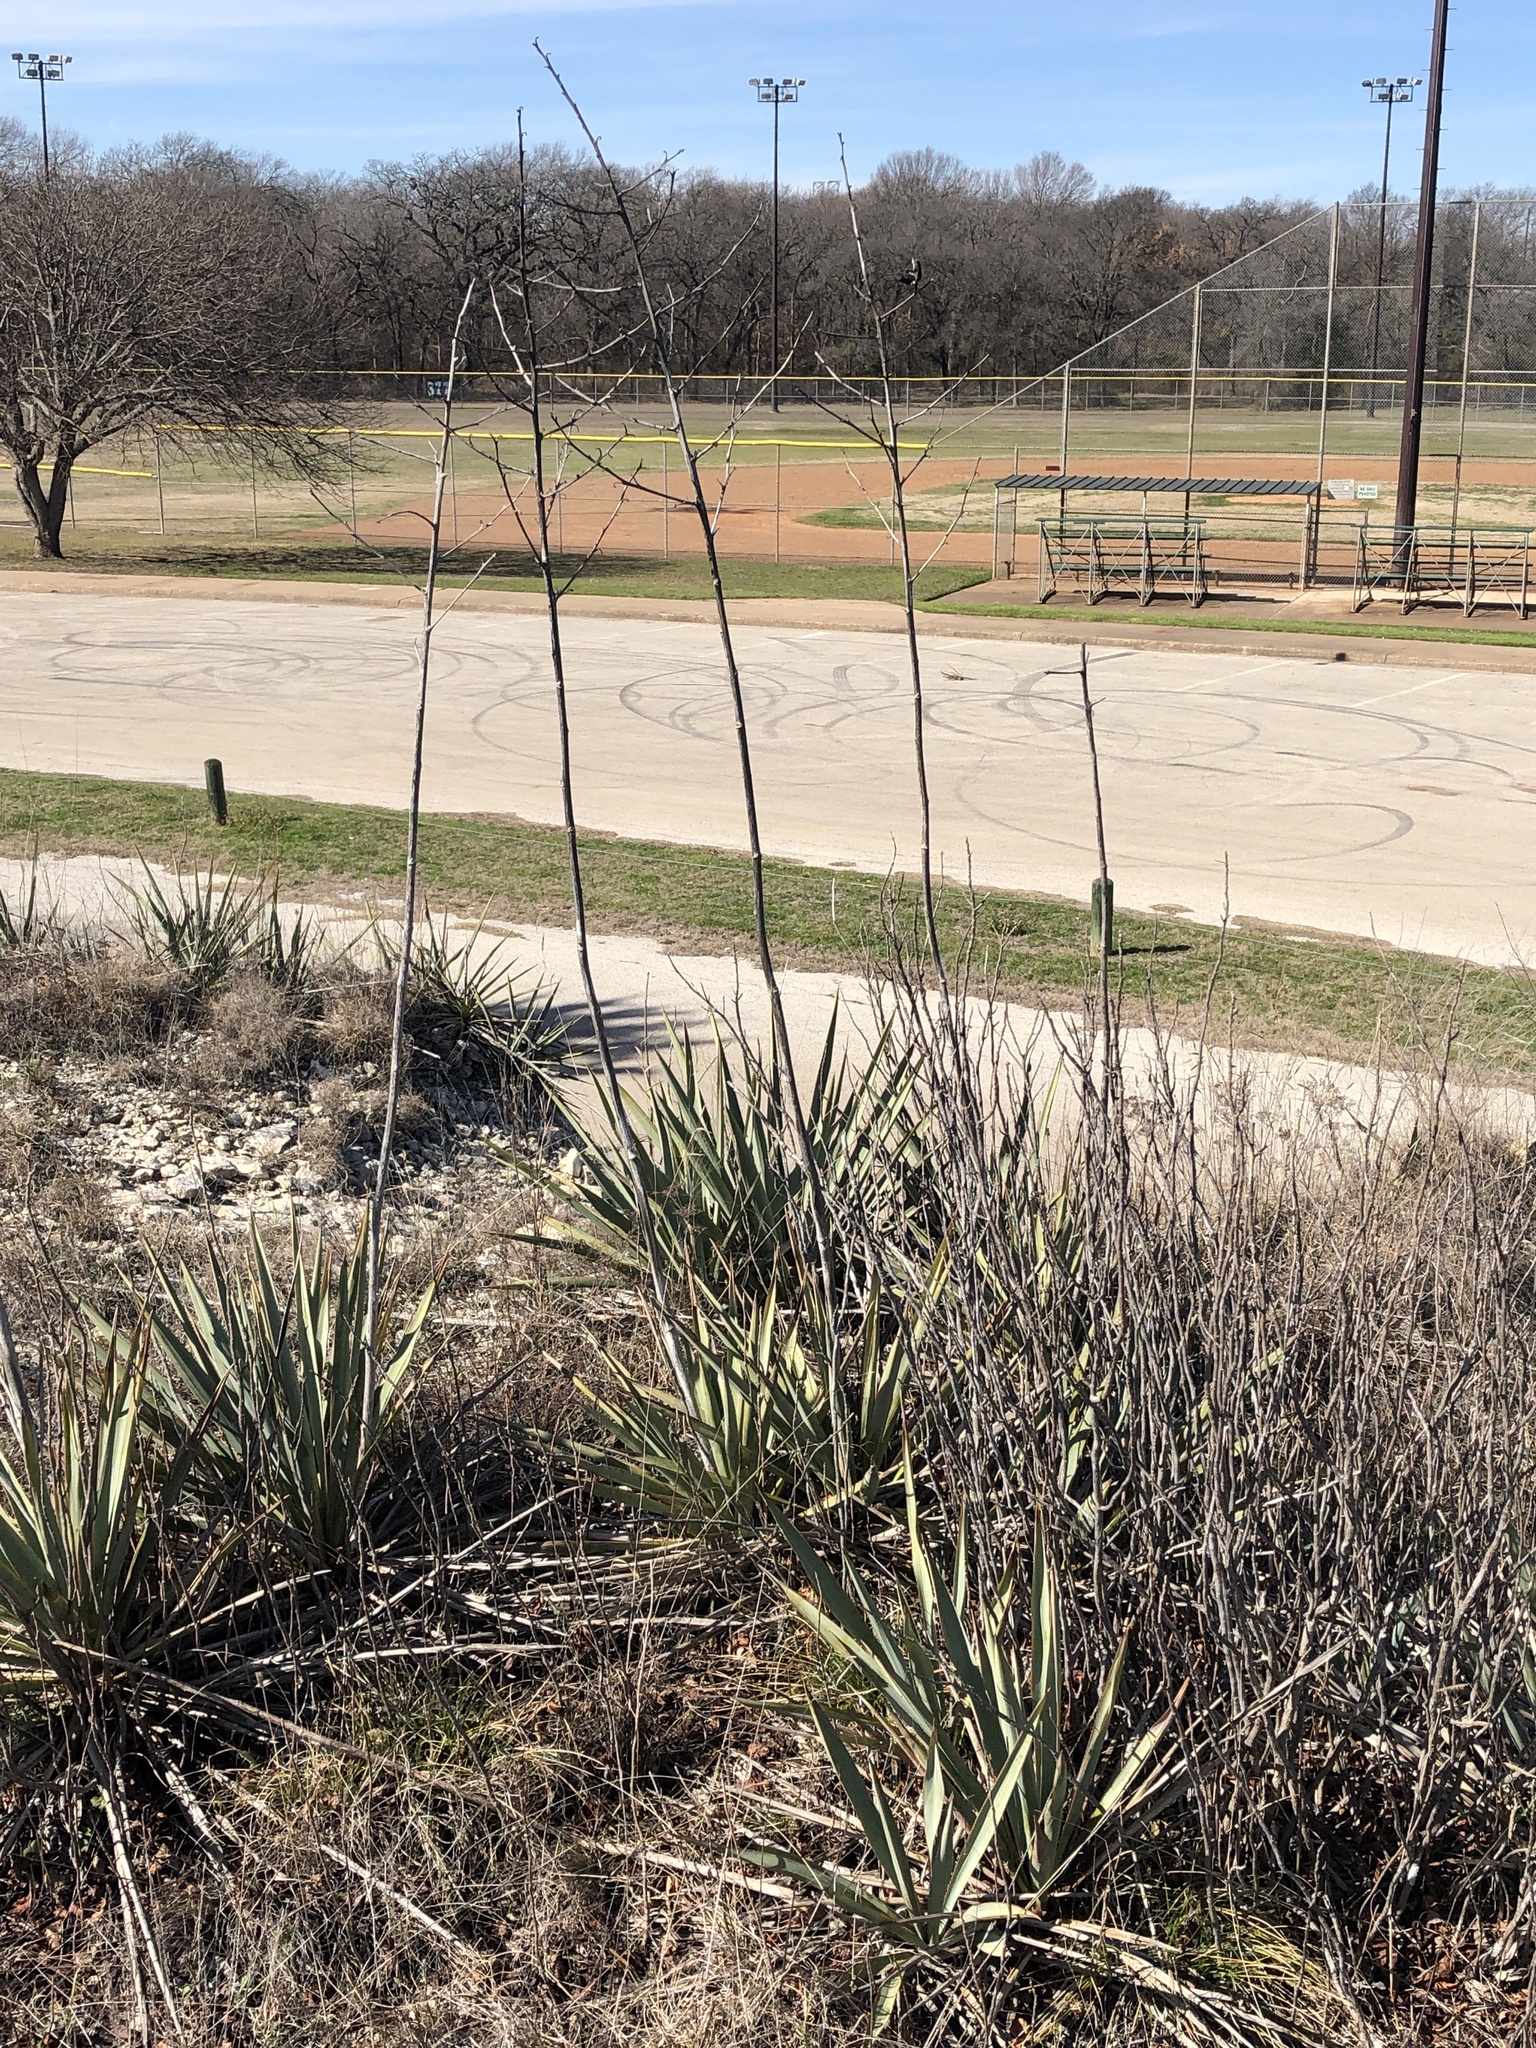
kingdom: Plantae
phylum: Tracheophyta
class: Liliopsida
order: Asparagales
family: Asparagaceae
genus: Yucca
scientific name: Yucca pallida
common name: Pale leaf yucca
